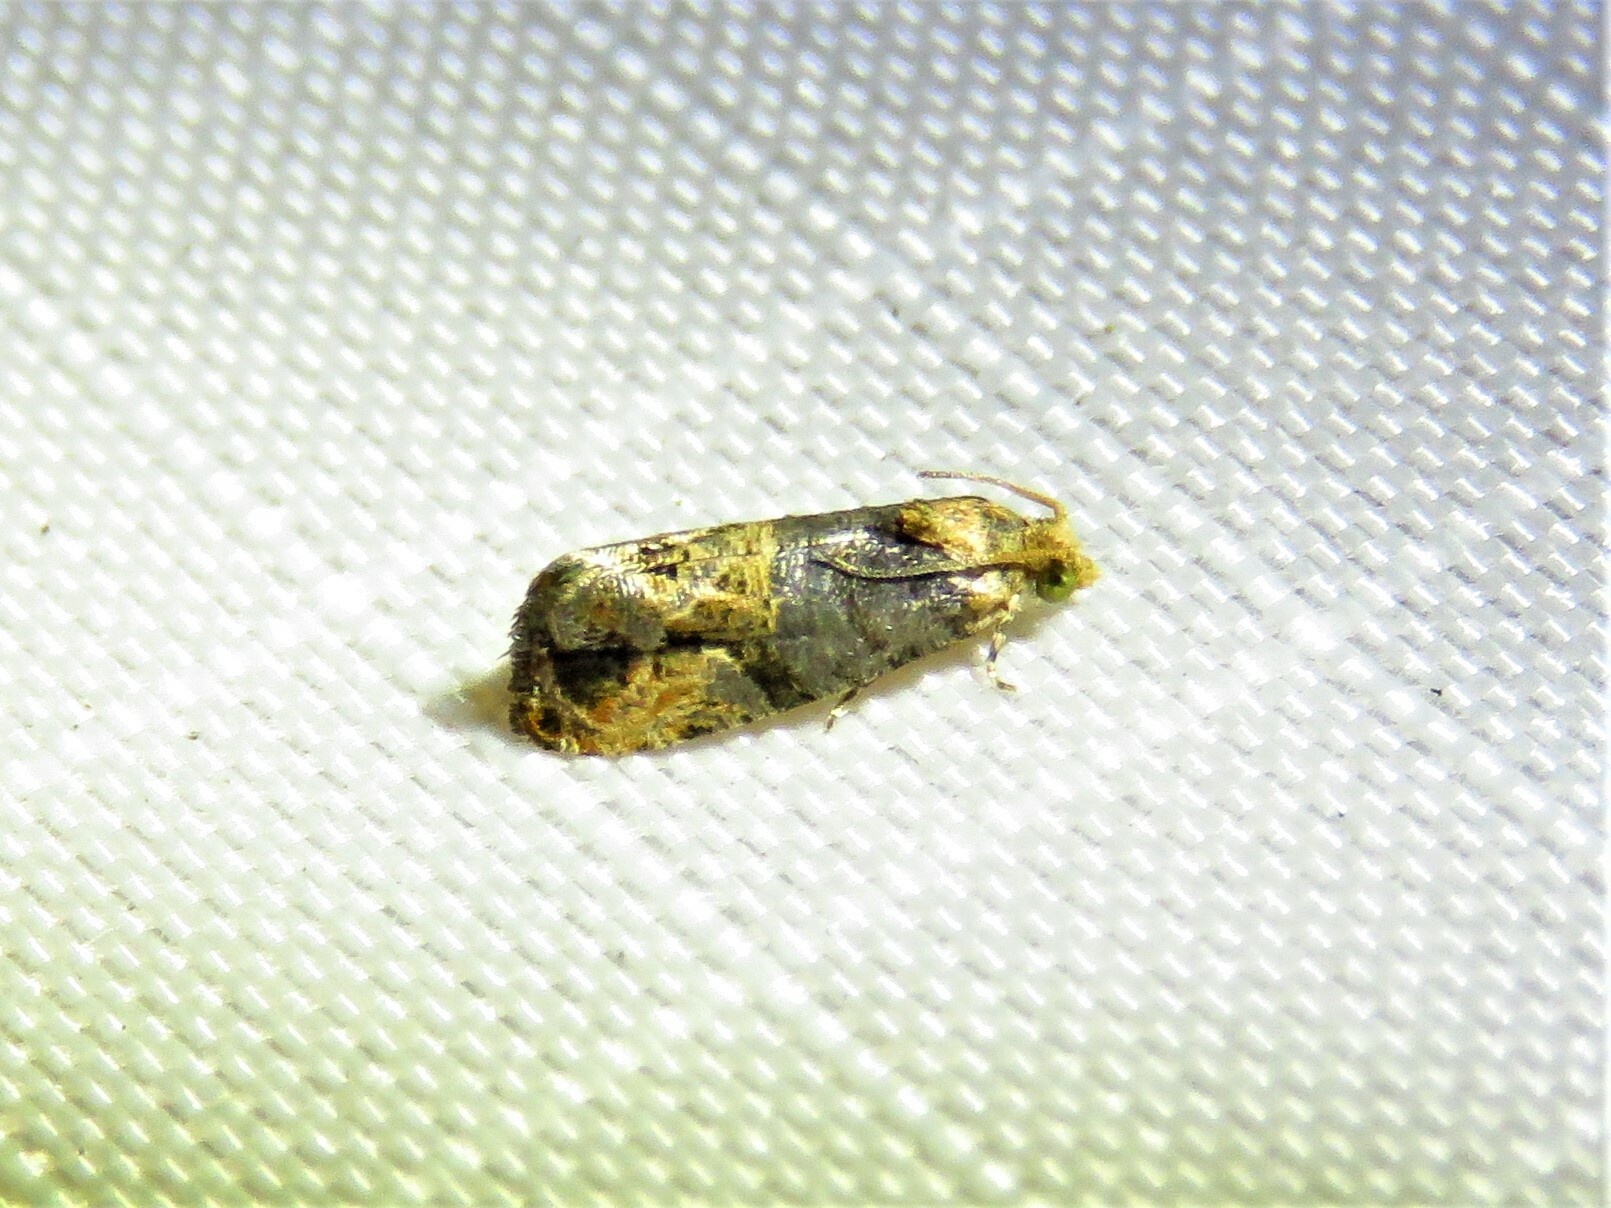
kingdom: Animalia
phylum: Arthropoda
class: Insecta
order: Lepidoptera
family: Tortricidae
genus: Paralobesia
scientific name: Paralobesia viteana
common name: Grape berry moth
